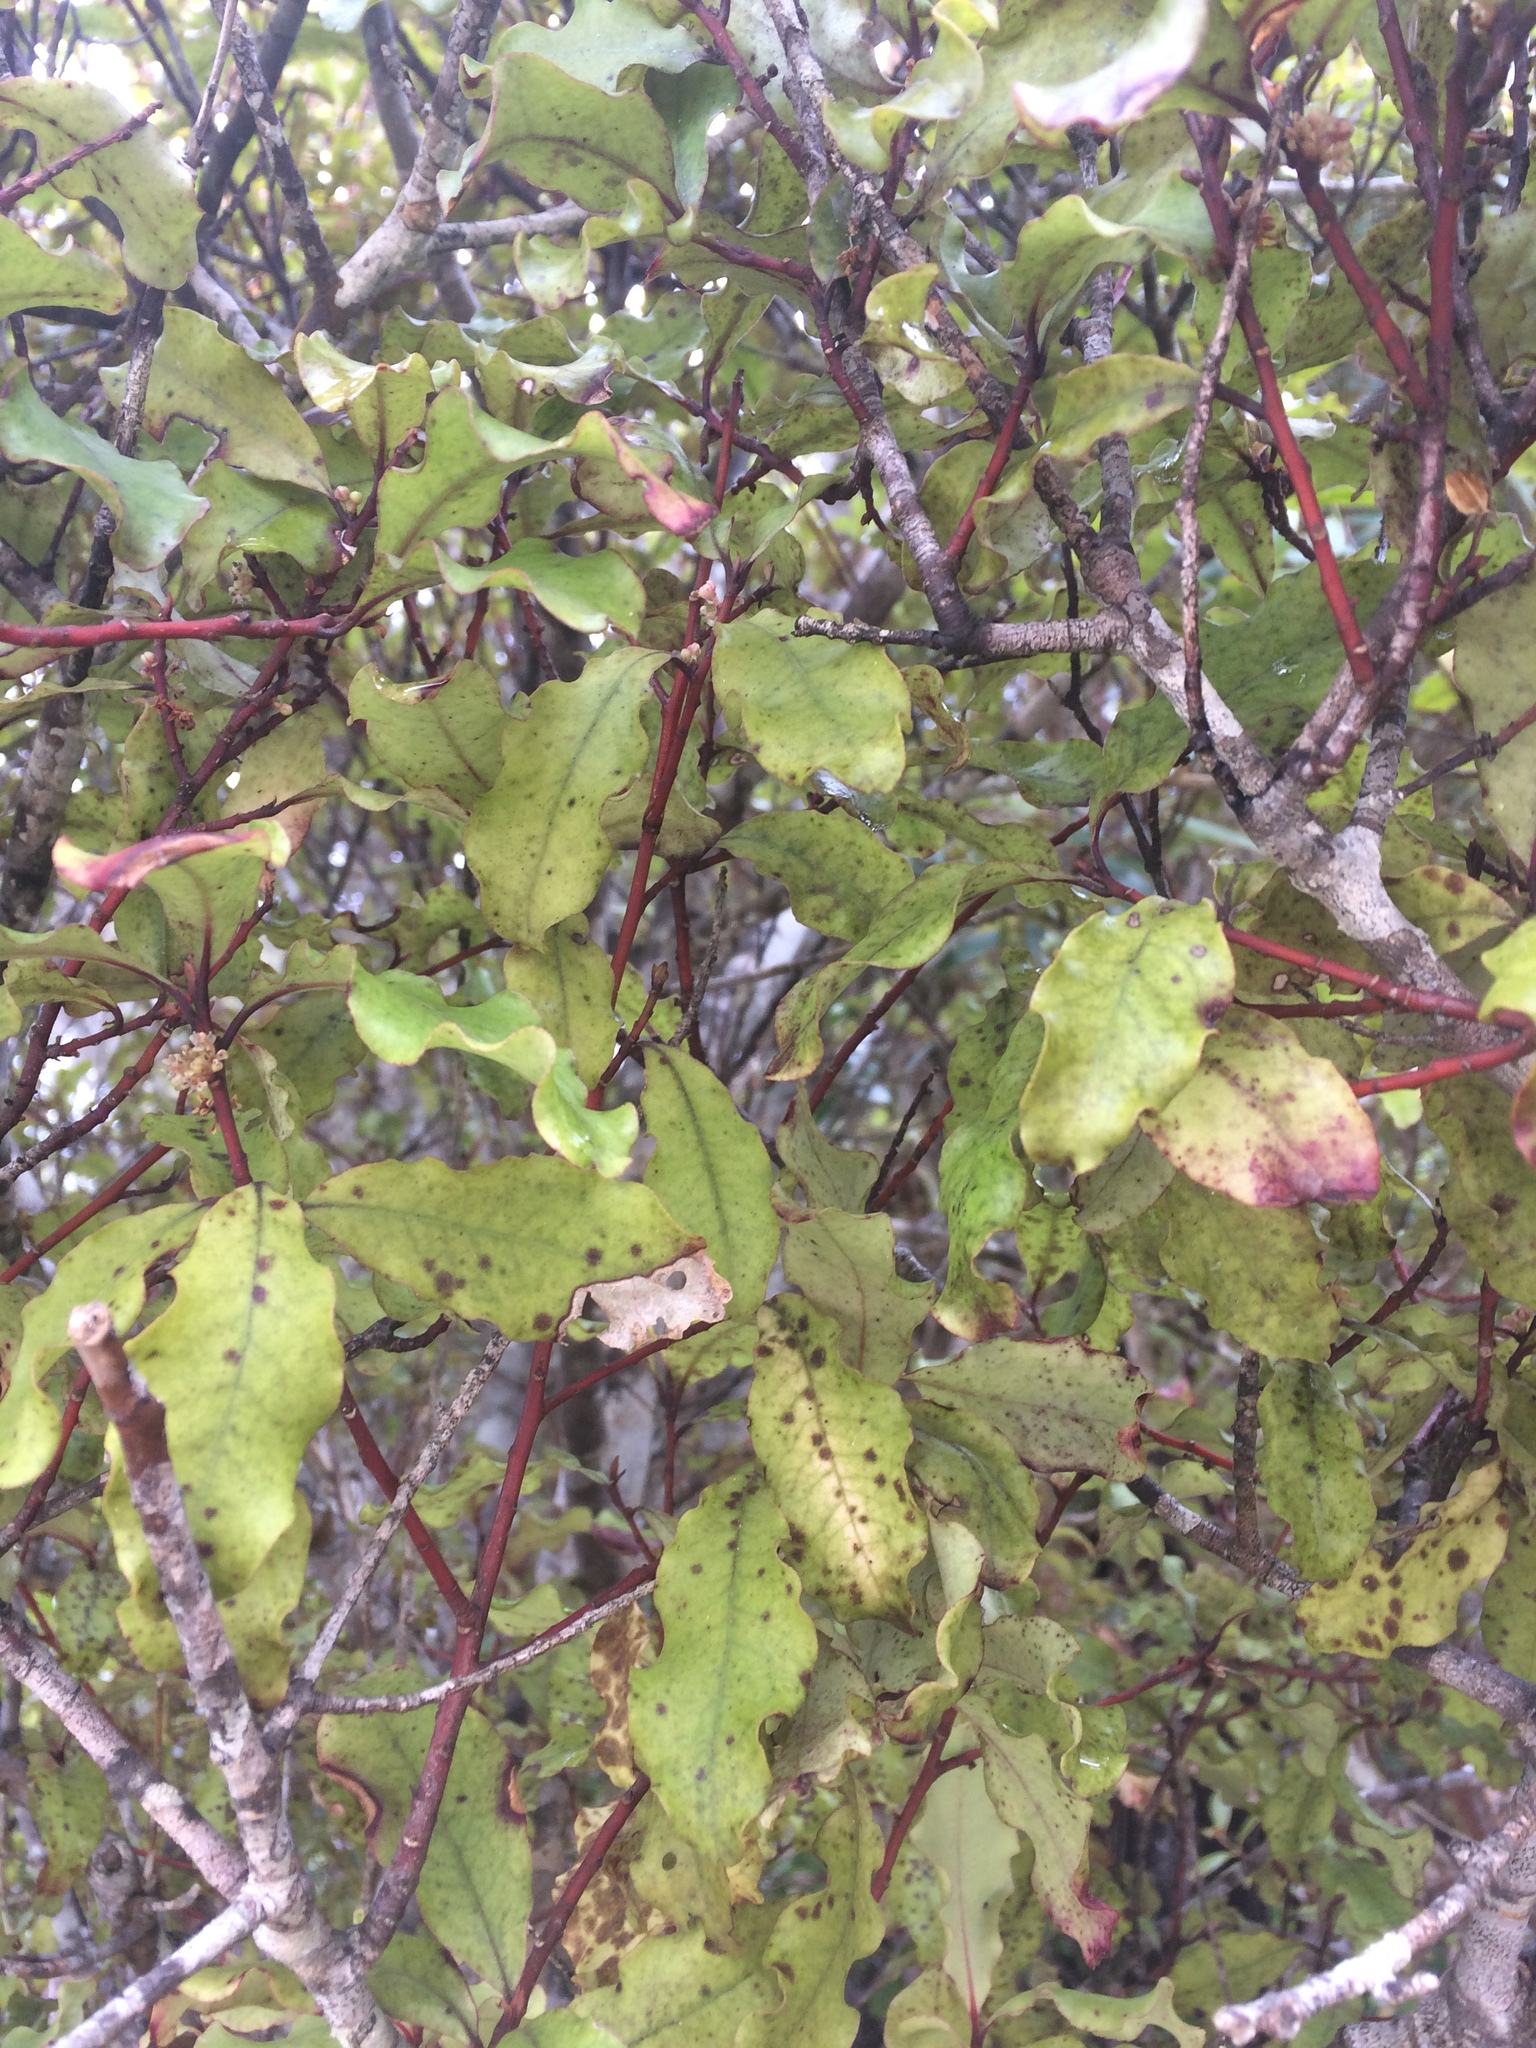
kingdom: Plantae
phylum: Tracheophyta
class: Magnoliopsida
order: Ericales
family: Primulaceae
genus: Myrsine
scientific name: Myrsine australis
